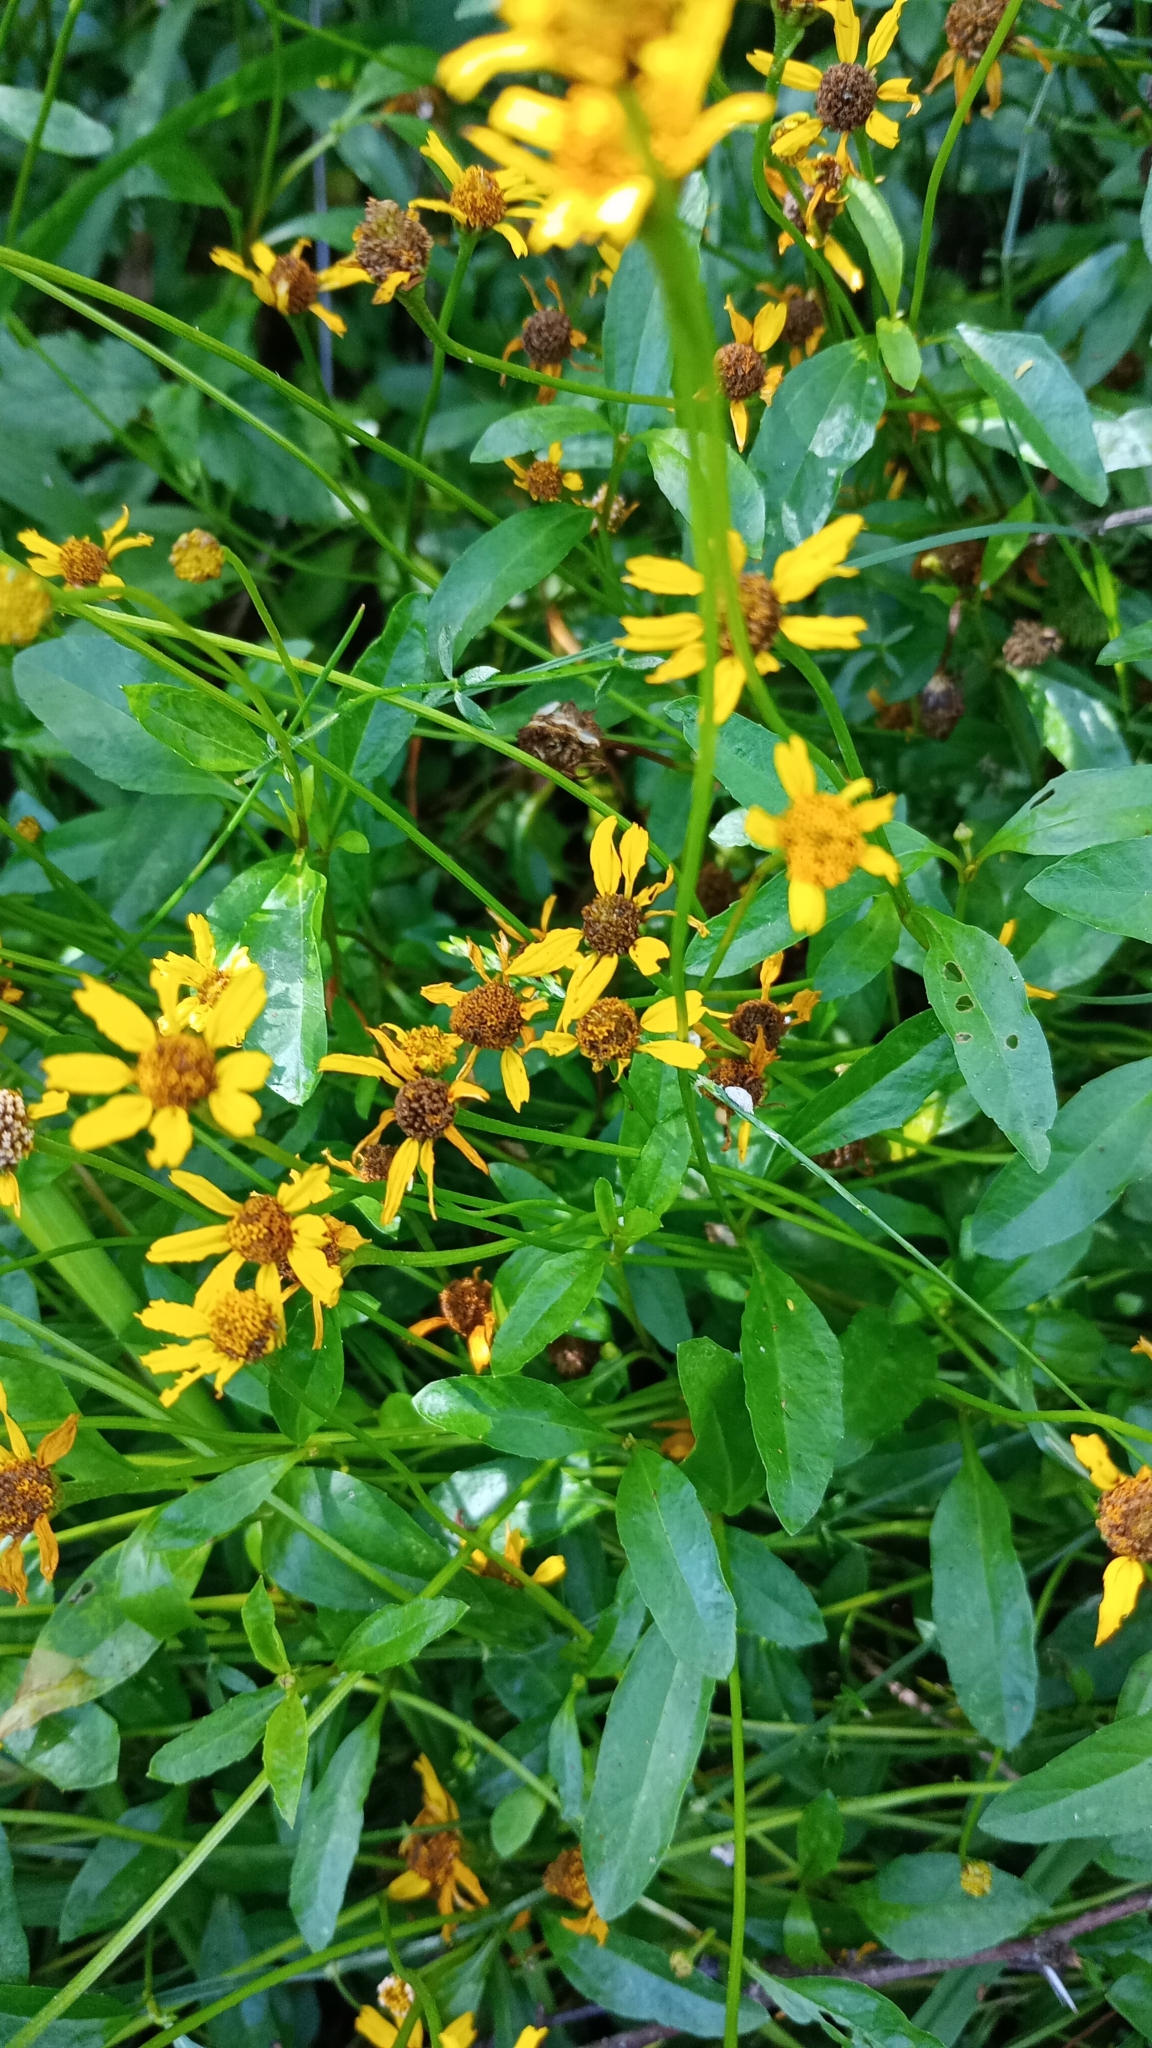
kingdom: Plantae
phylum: Tracheophyta
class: Magnoliopsida
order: Asterales
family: Asteraceae
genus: Acmella
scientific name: Acmella decumbens
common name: Creeping spotflower
